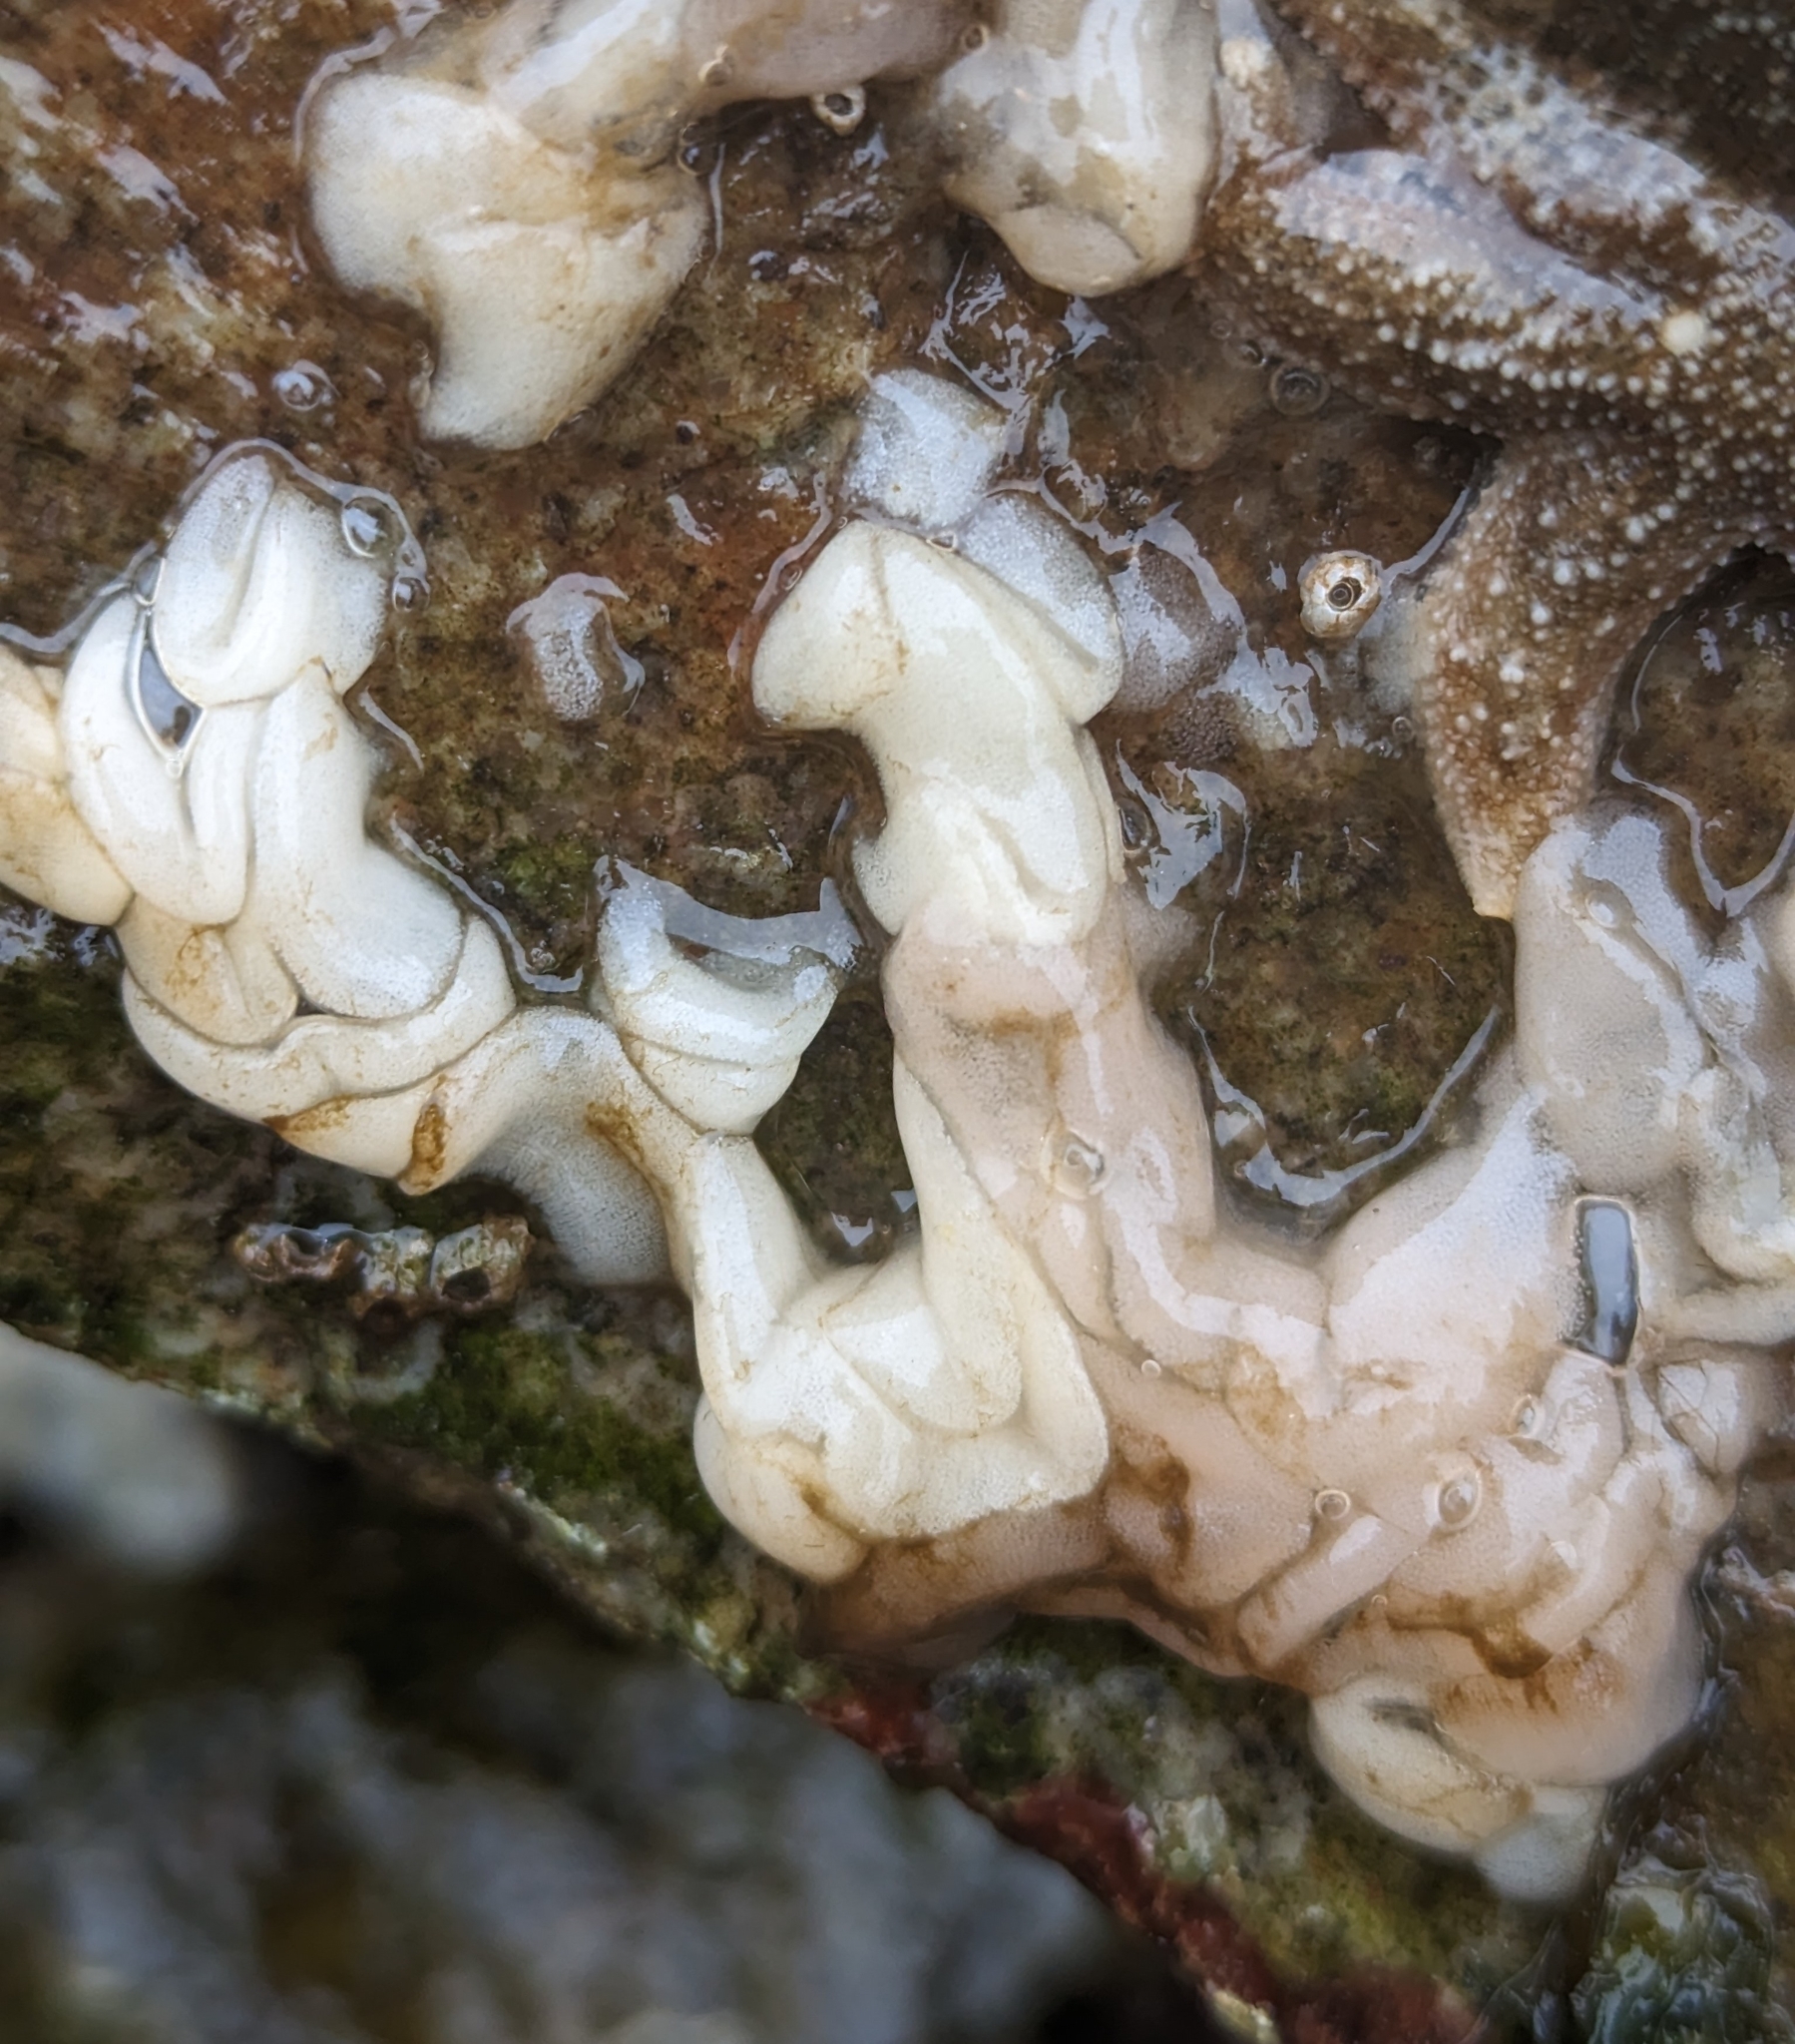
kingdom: Animalia
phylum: Mollusca
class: Gastropoda
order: Nudibranchia
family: Onchidorididae
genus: Onchidoris
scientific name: Onchidoris bilamellata
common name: Barnacle-eating onchidoris
